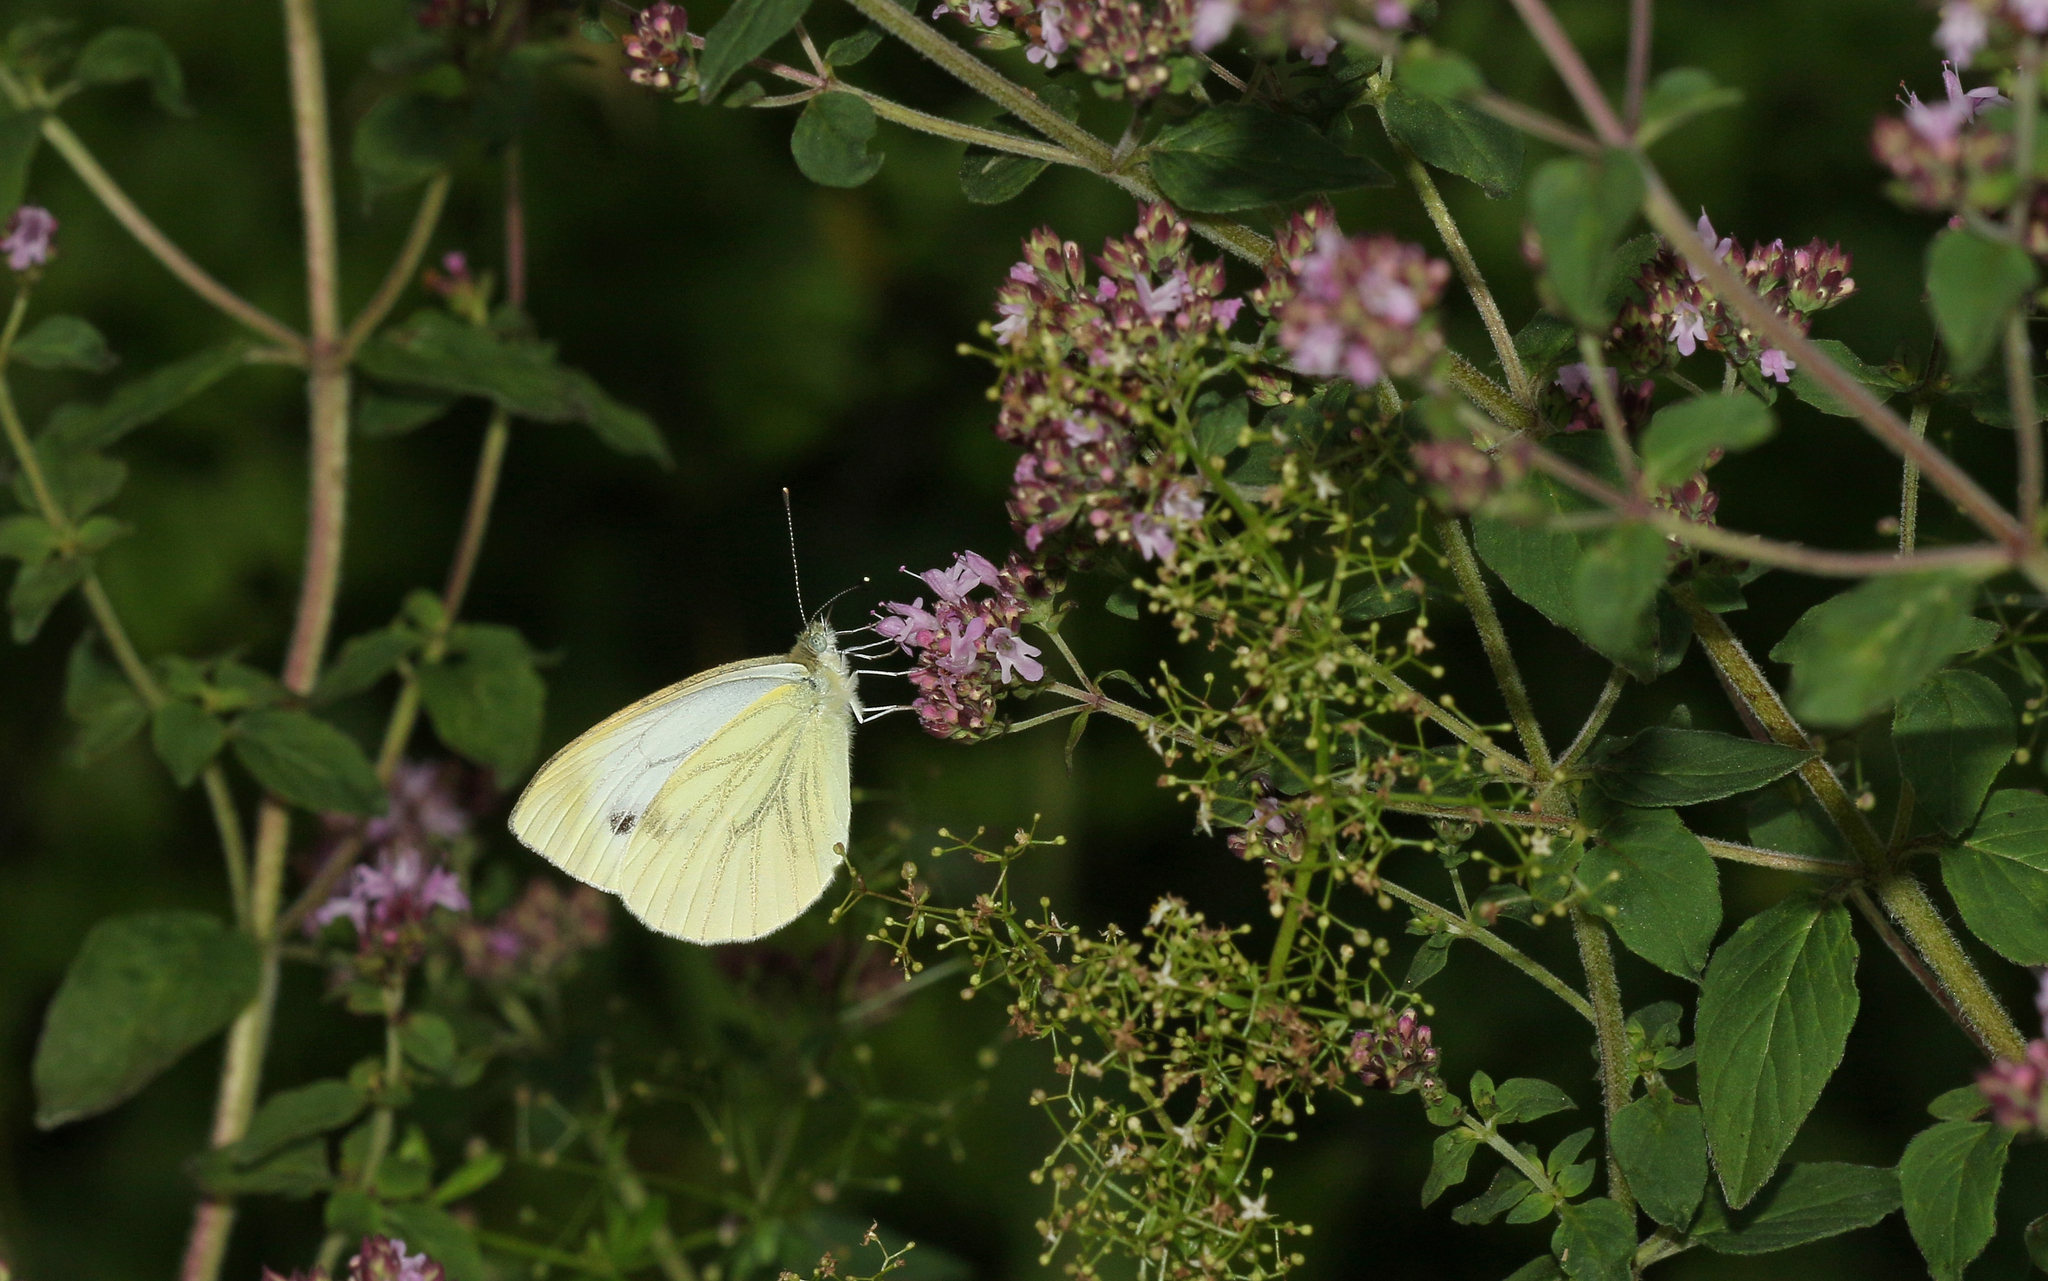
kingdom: Animalia
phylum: Arthropoda
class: Insecta
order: Lepidoptera
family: Pieridae
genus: Pieris
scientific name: Pieris napi
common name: Green-veined white
